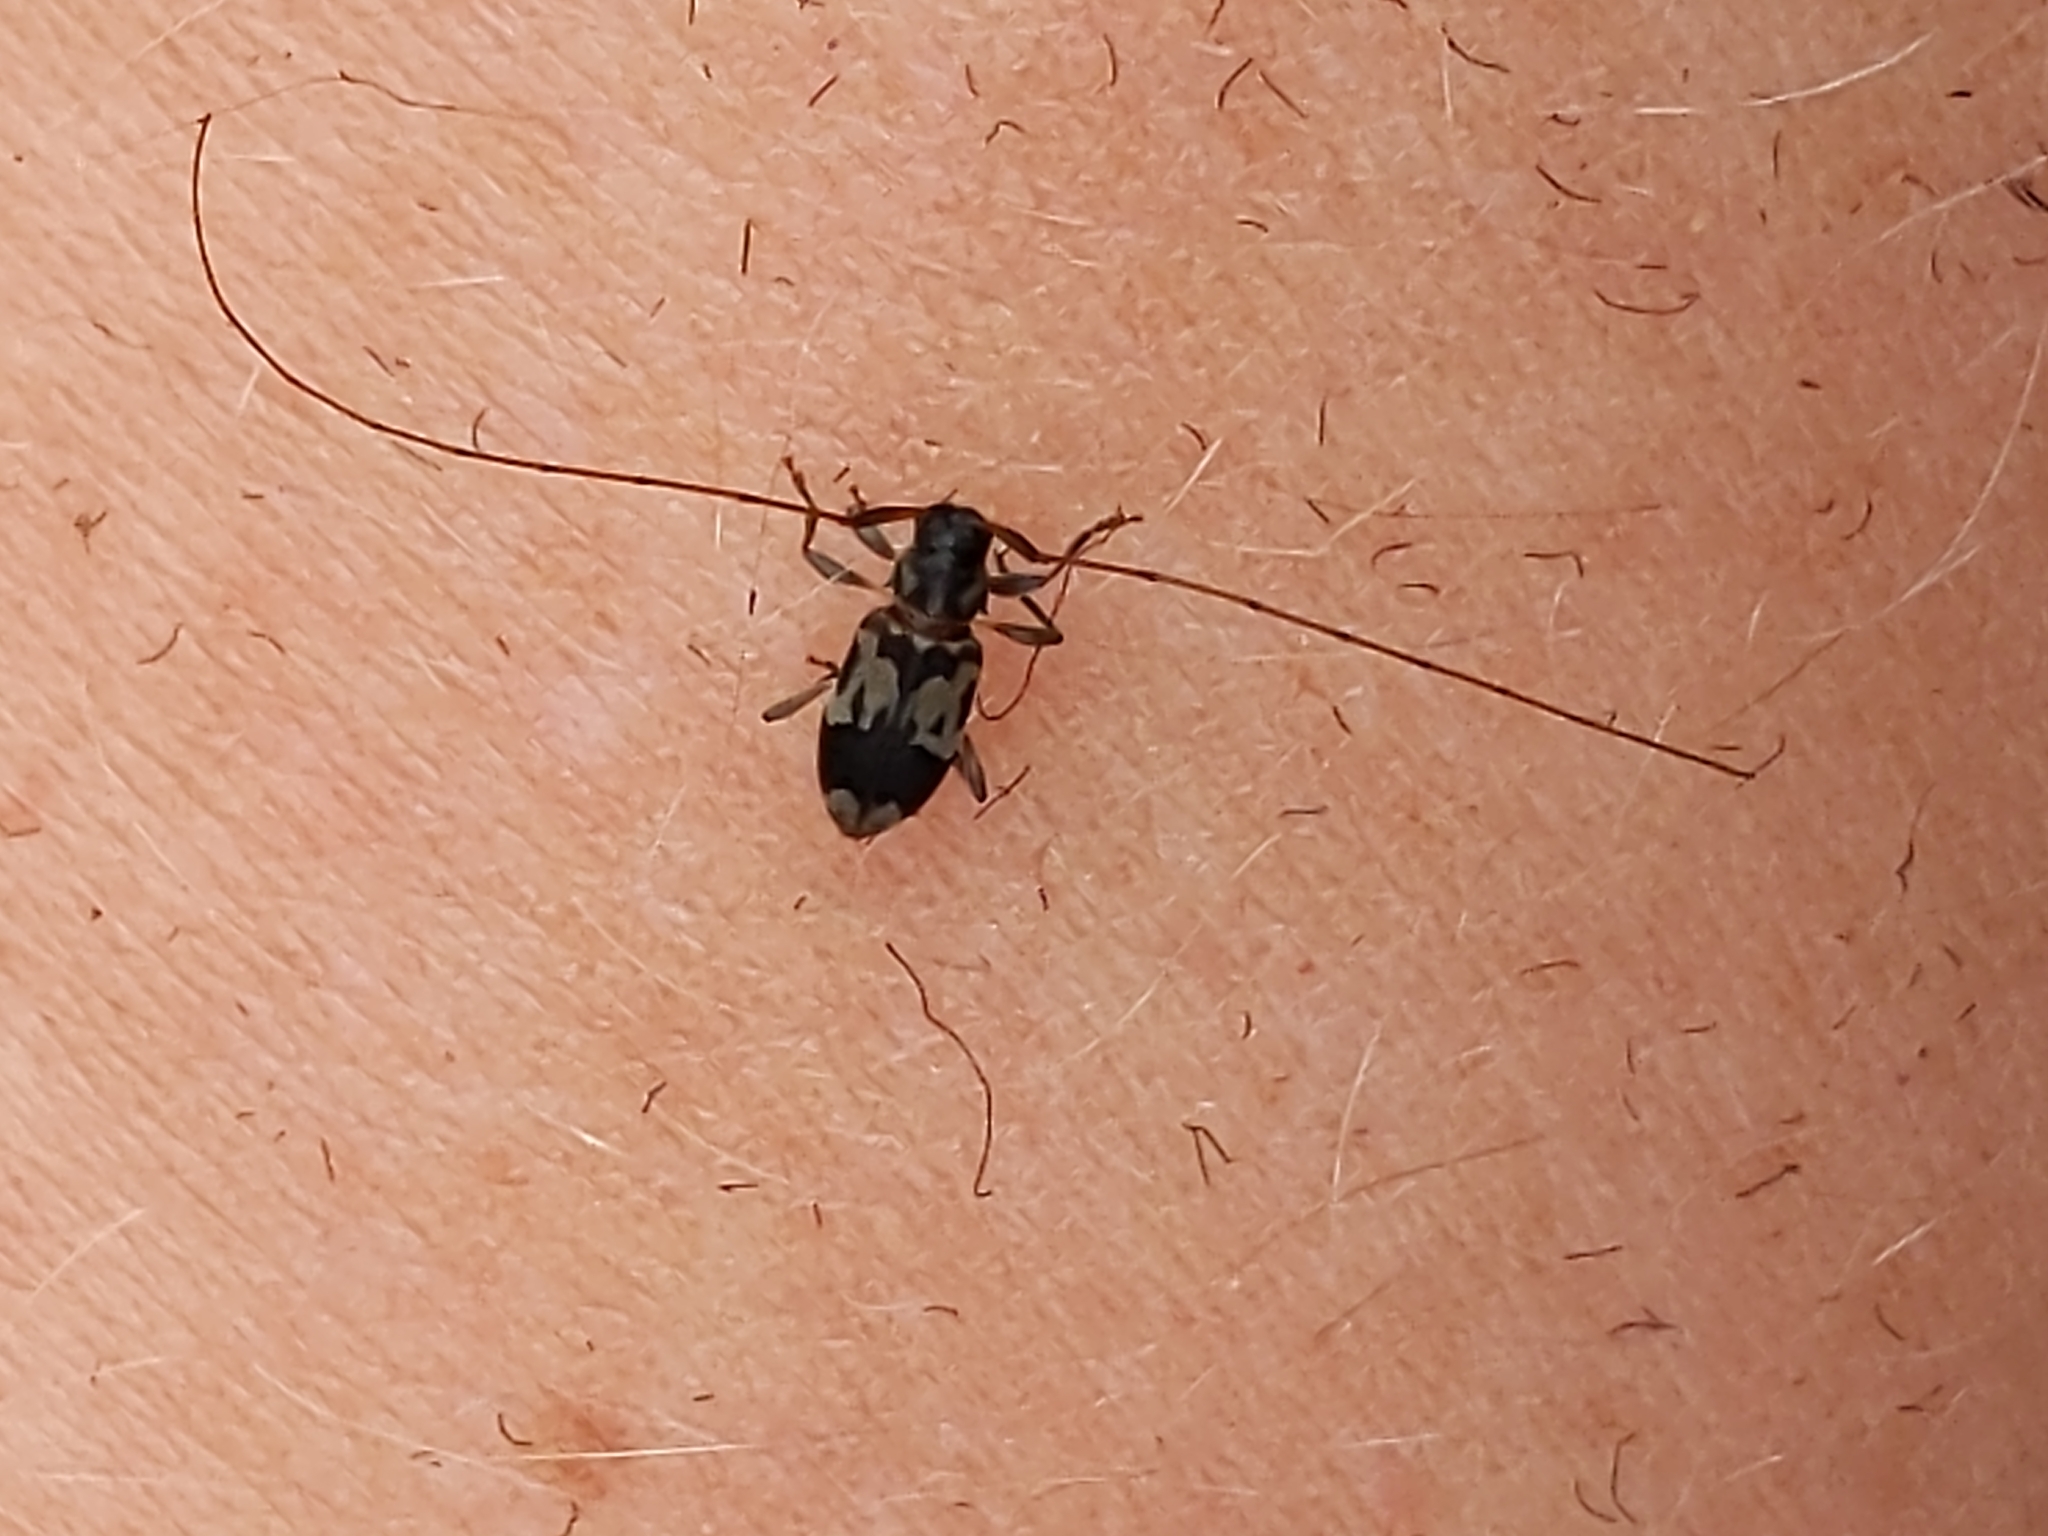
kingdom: Animalia
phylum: Arthropoda
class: Insecta
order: Coleoptera
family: Cerambycidae
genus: Urgleptes
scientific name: Urgleptes querci
